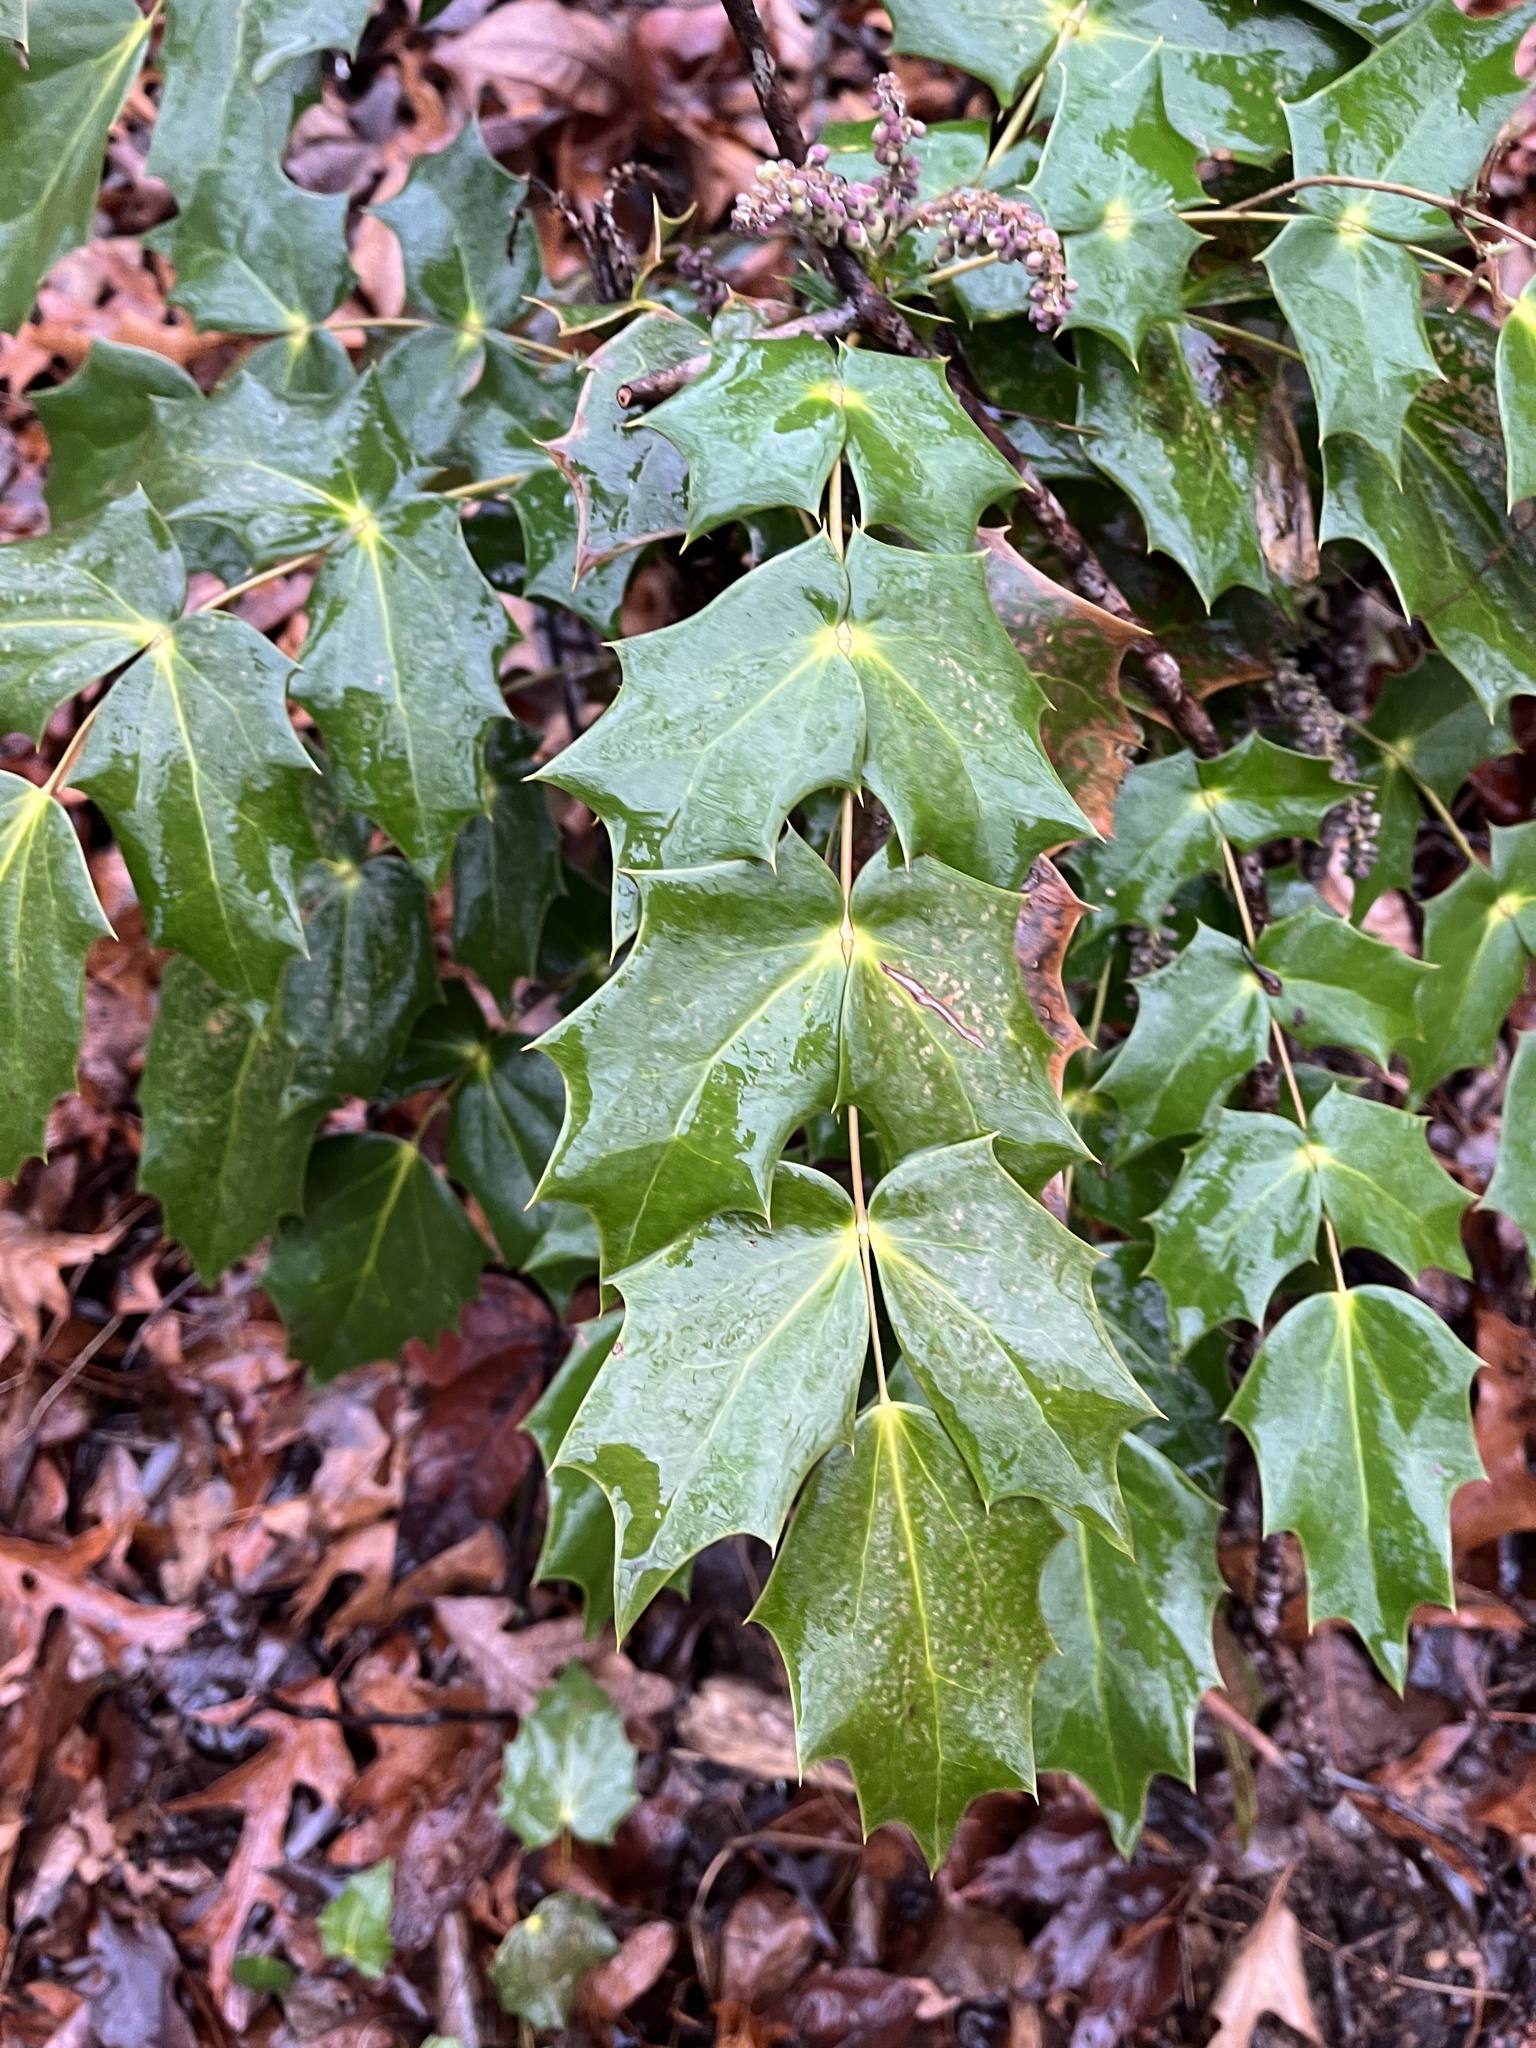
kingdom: Plantae
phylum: Tracheophyta
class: Magnoliopsida
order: Ranunculales
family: Berberidaceae
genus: Mahonia
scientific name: Mahonia bealei
